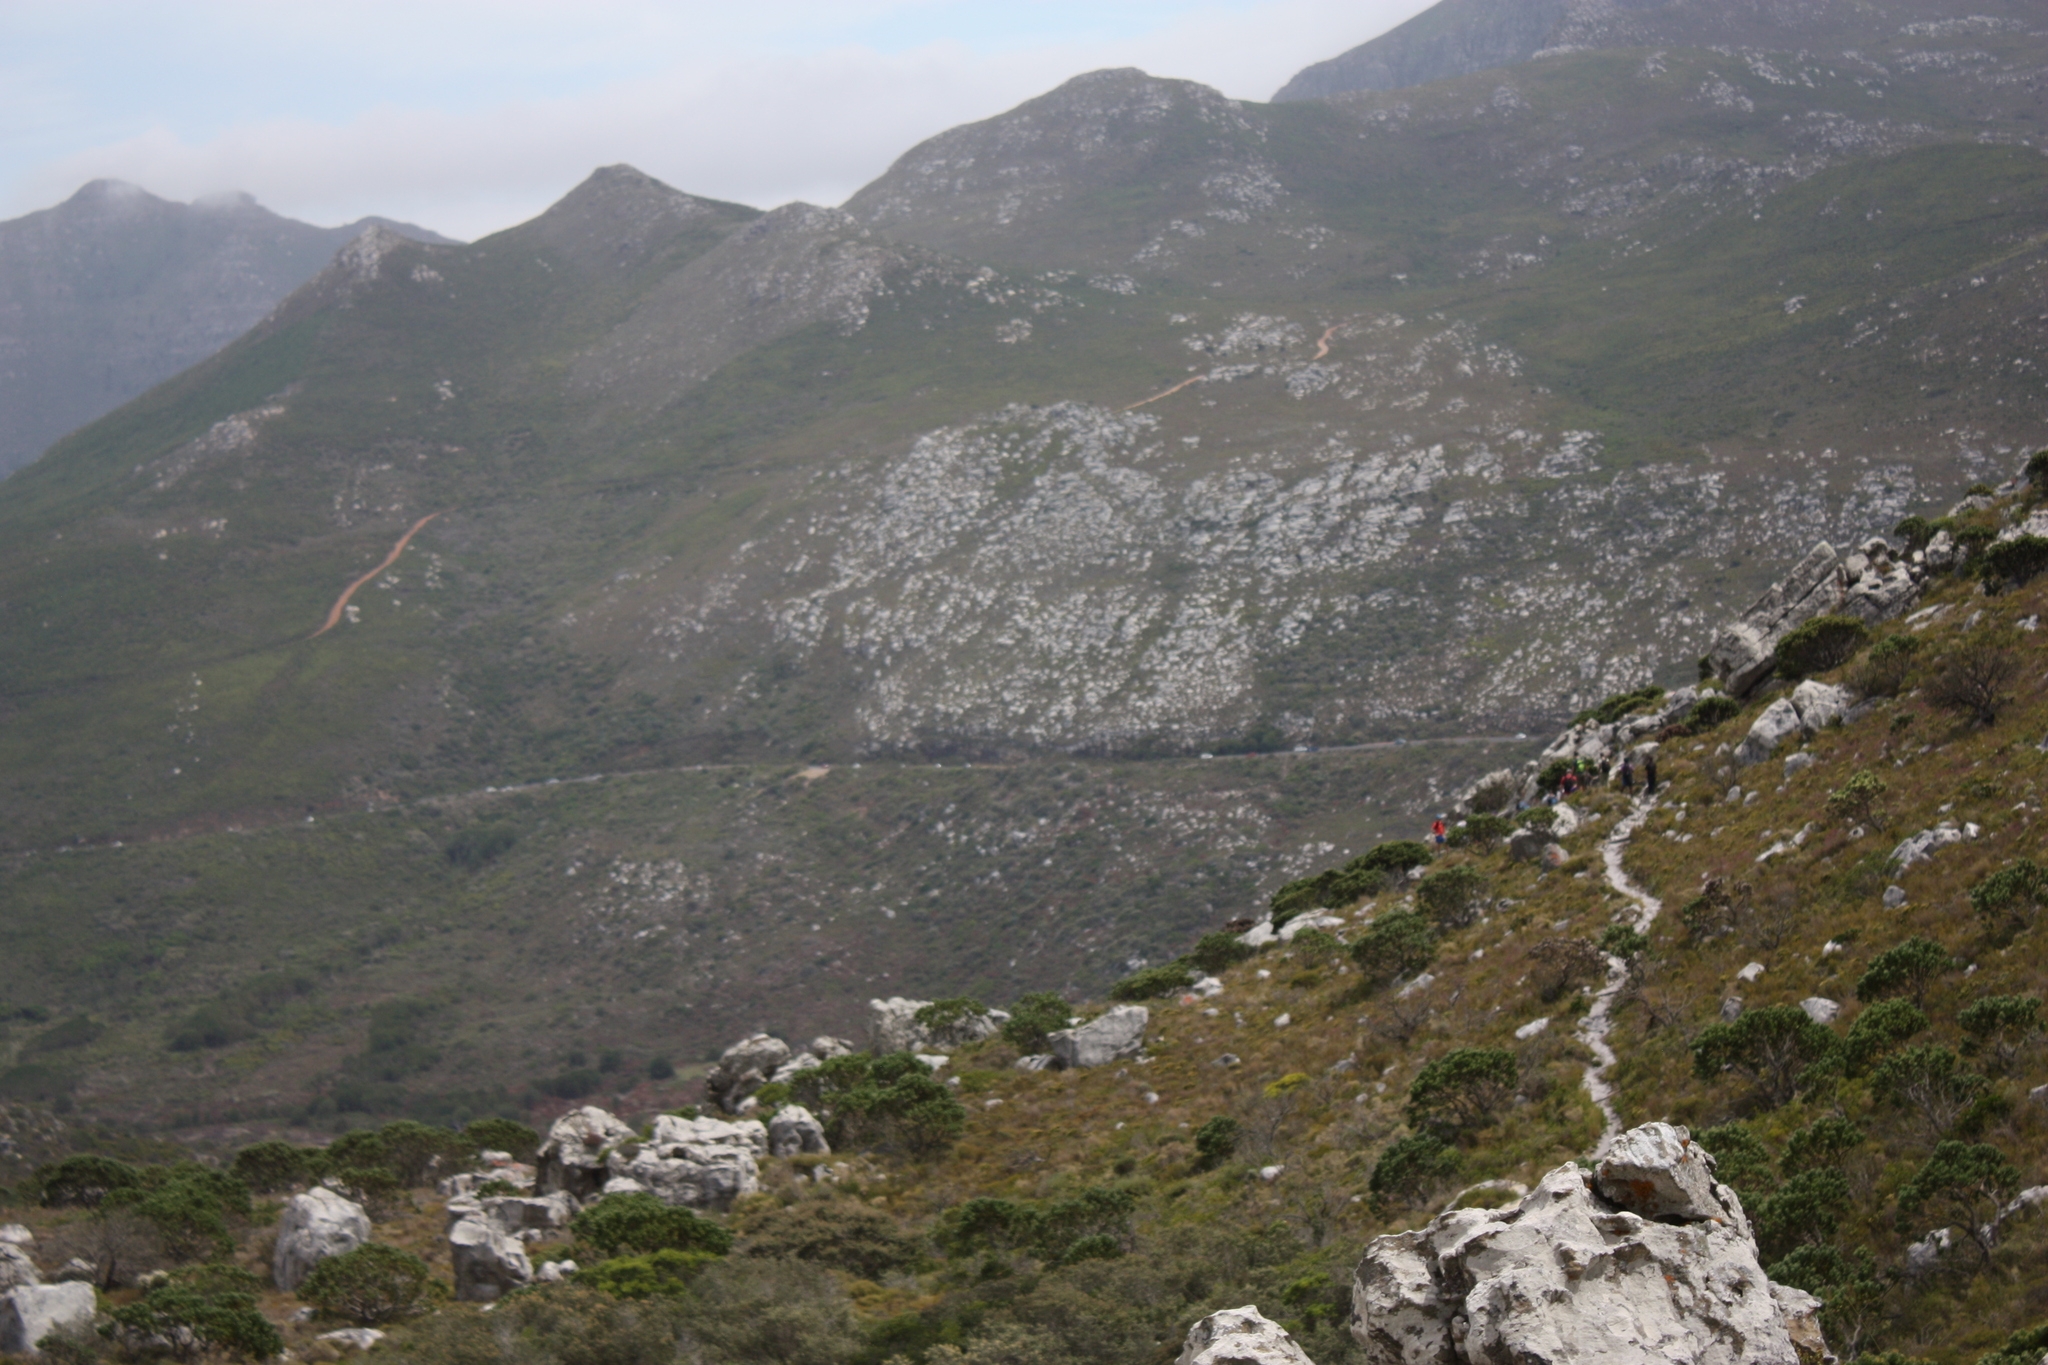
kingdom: Plantae
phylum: Tracheophyta
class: Magnoliopsida
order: Proteales
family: Proteaceae
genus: Leucospermum
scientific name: Leucospermum conocarpodendron
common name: Tree pincushion
